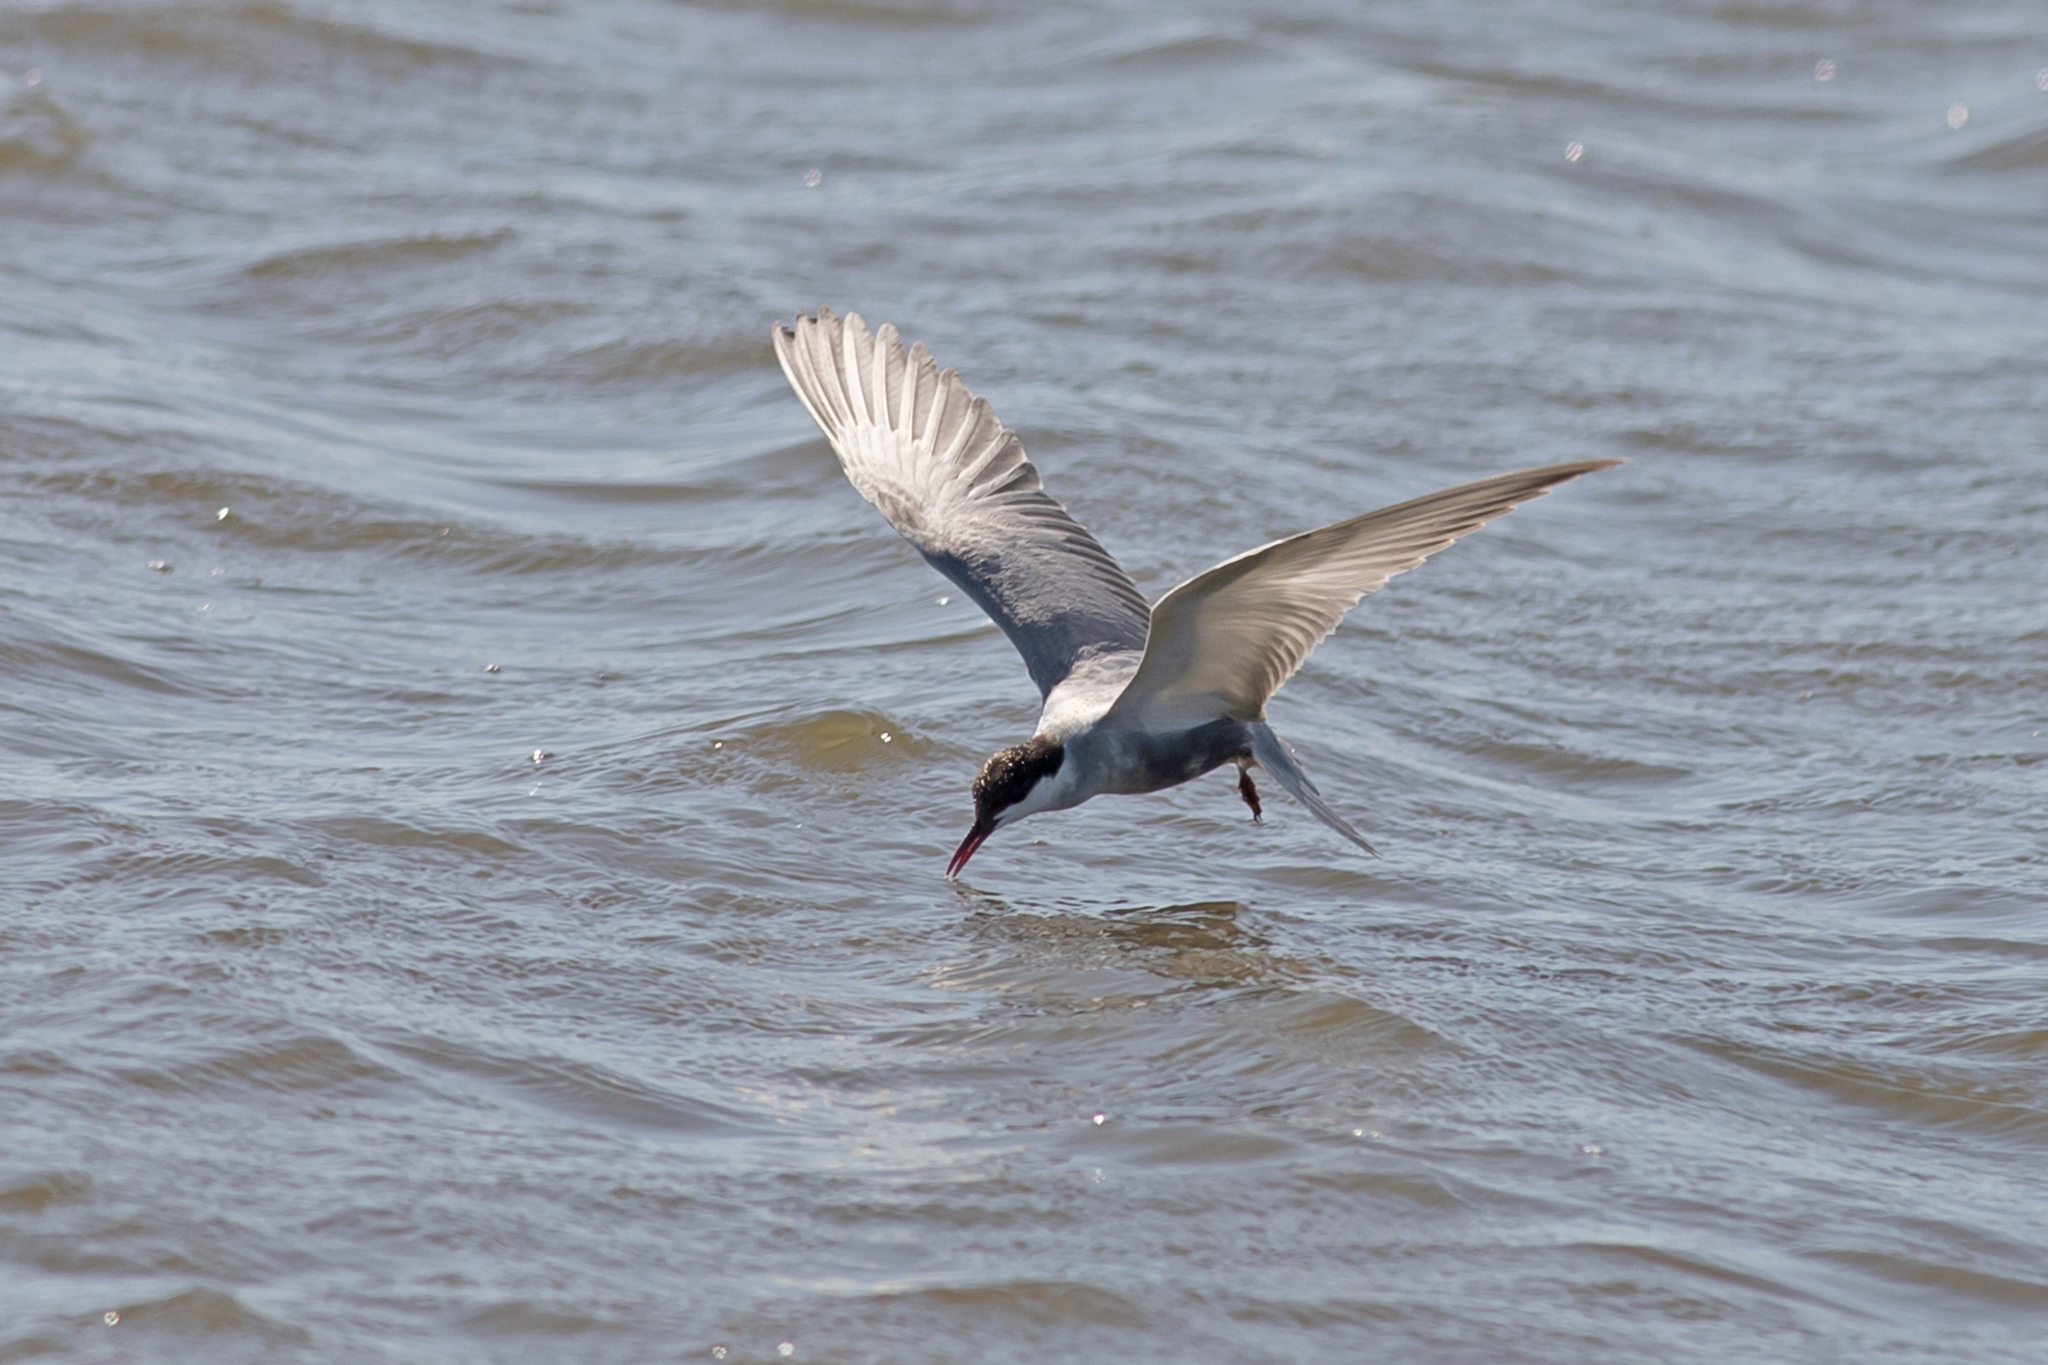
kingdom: Animalia
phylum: Chordata
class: Aves
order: Charadriiformes
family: Laridae
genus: Chlidonias
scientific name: Chlidonias hybrida
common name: Whiskered tern
